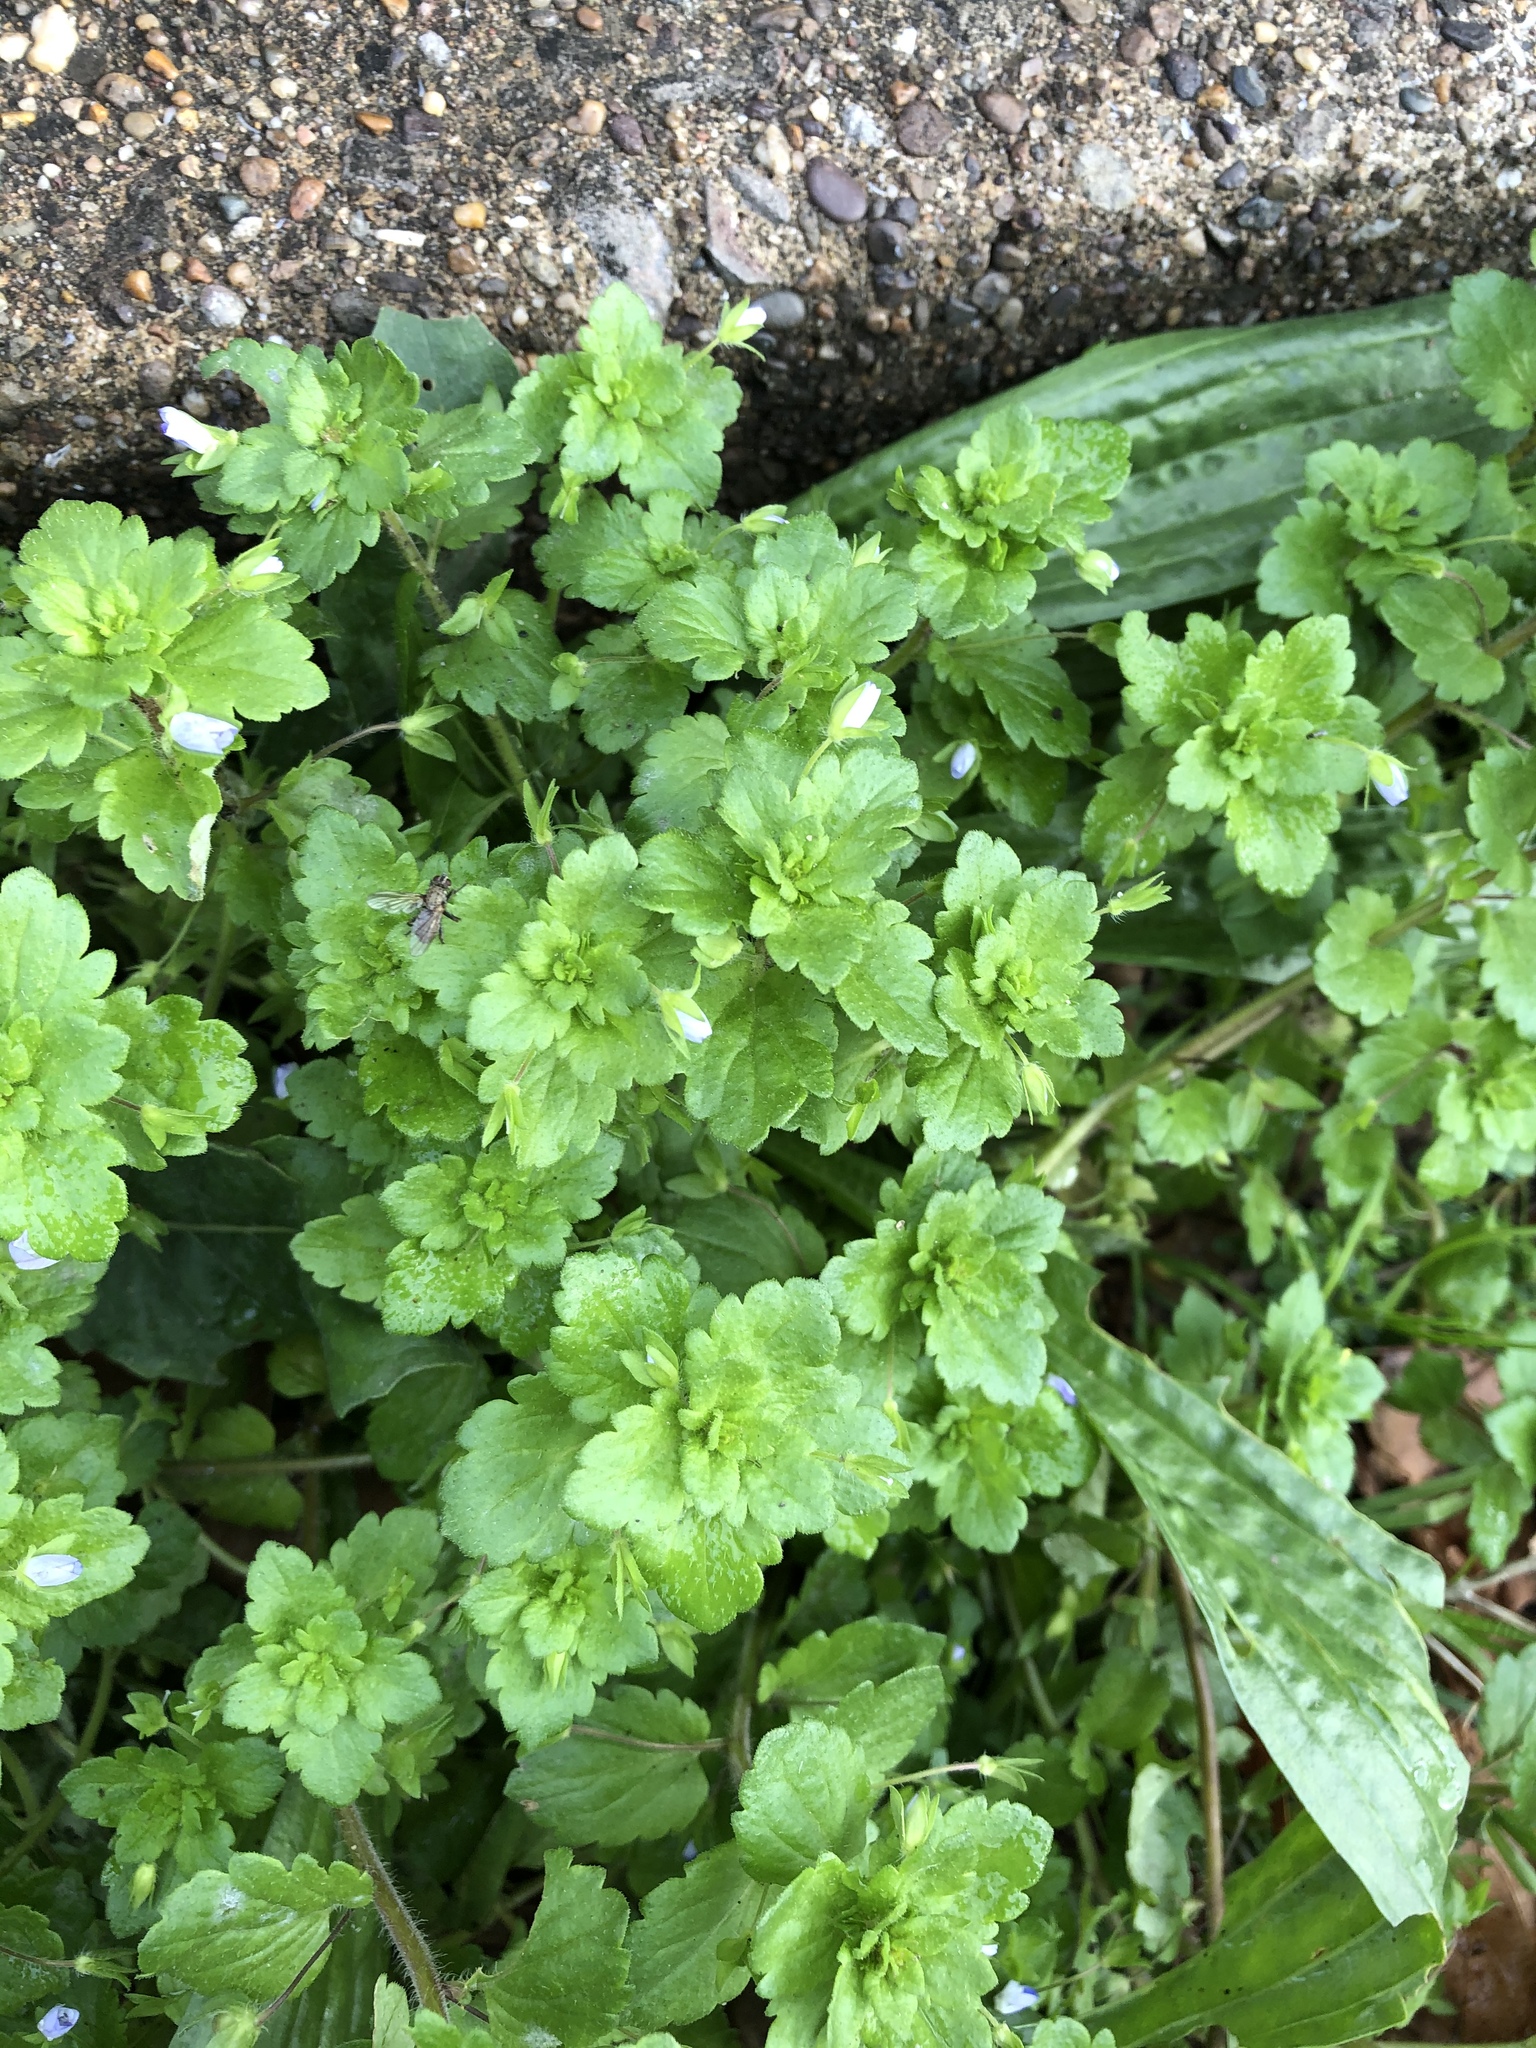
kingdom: Plantae
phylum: Tracheophyta
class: Magnoliopsida
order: Lamiales
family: Plantaginaceae
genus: Veronica
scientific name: Veronica persica
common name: Common field-speedwell
